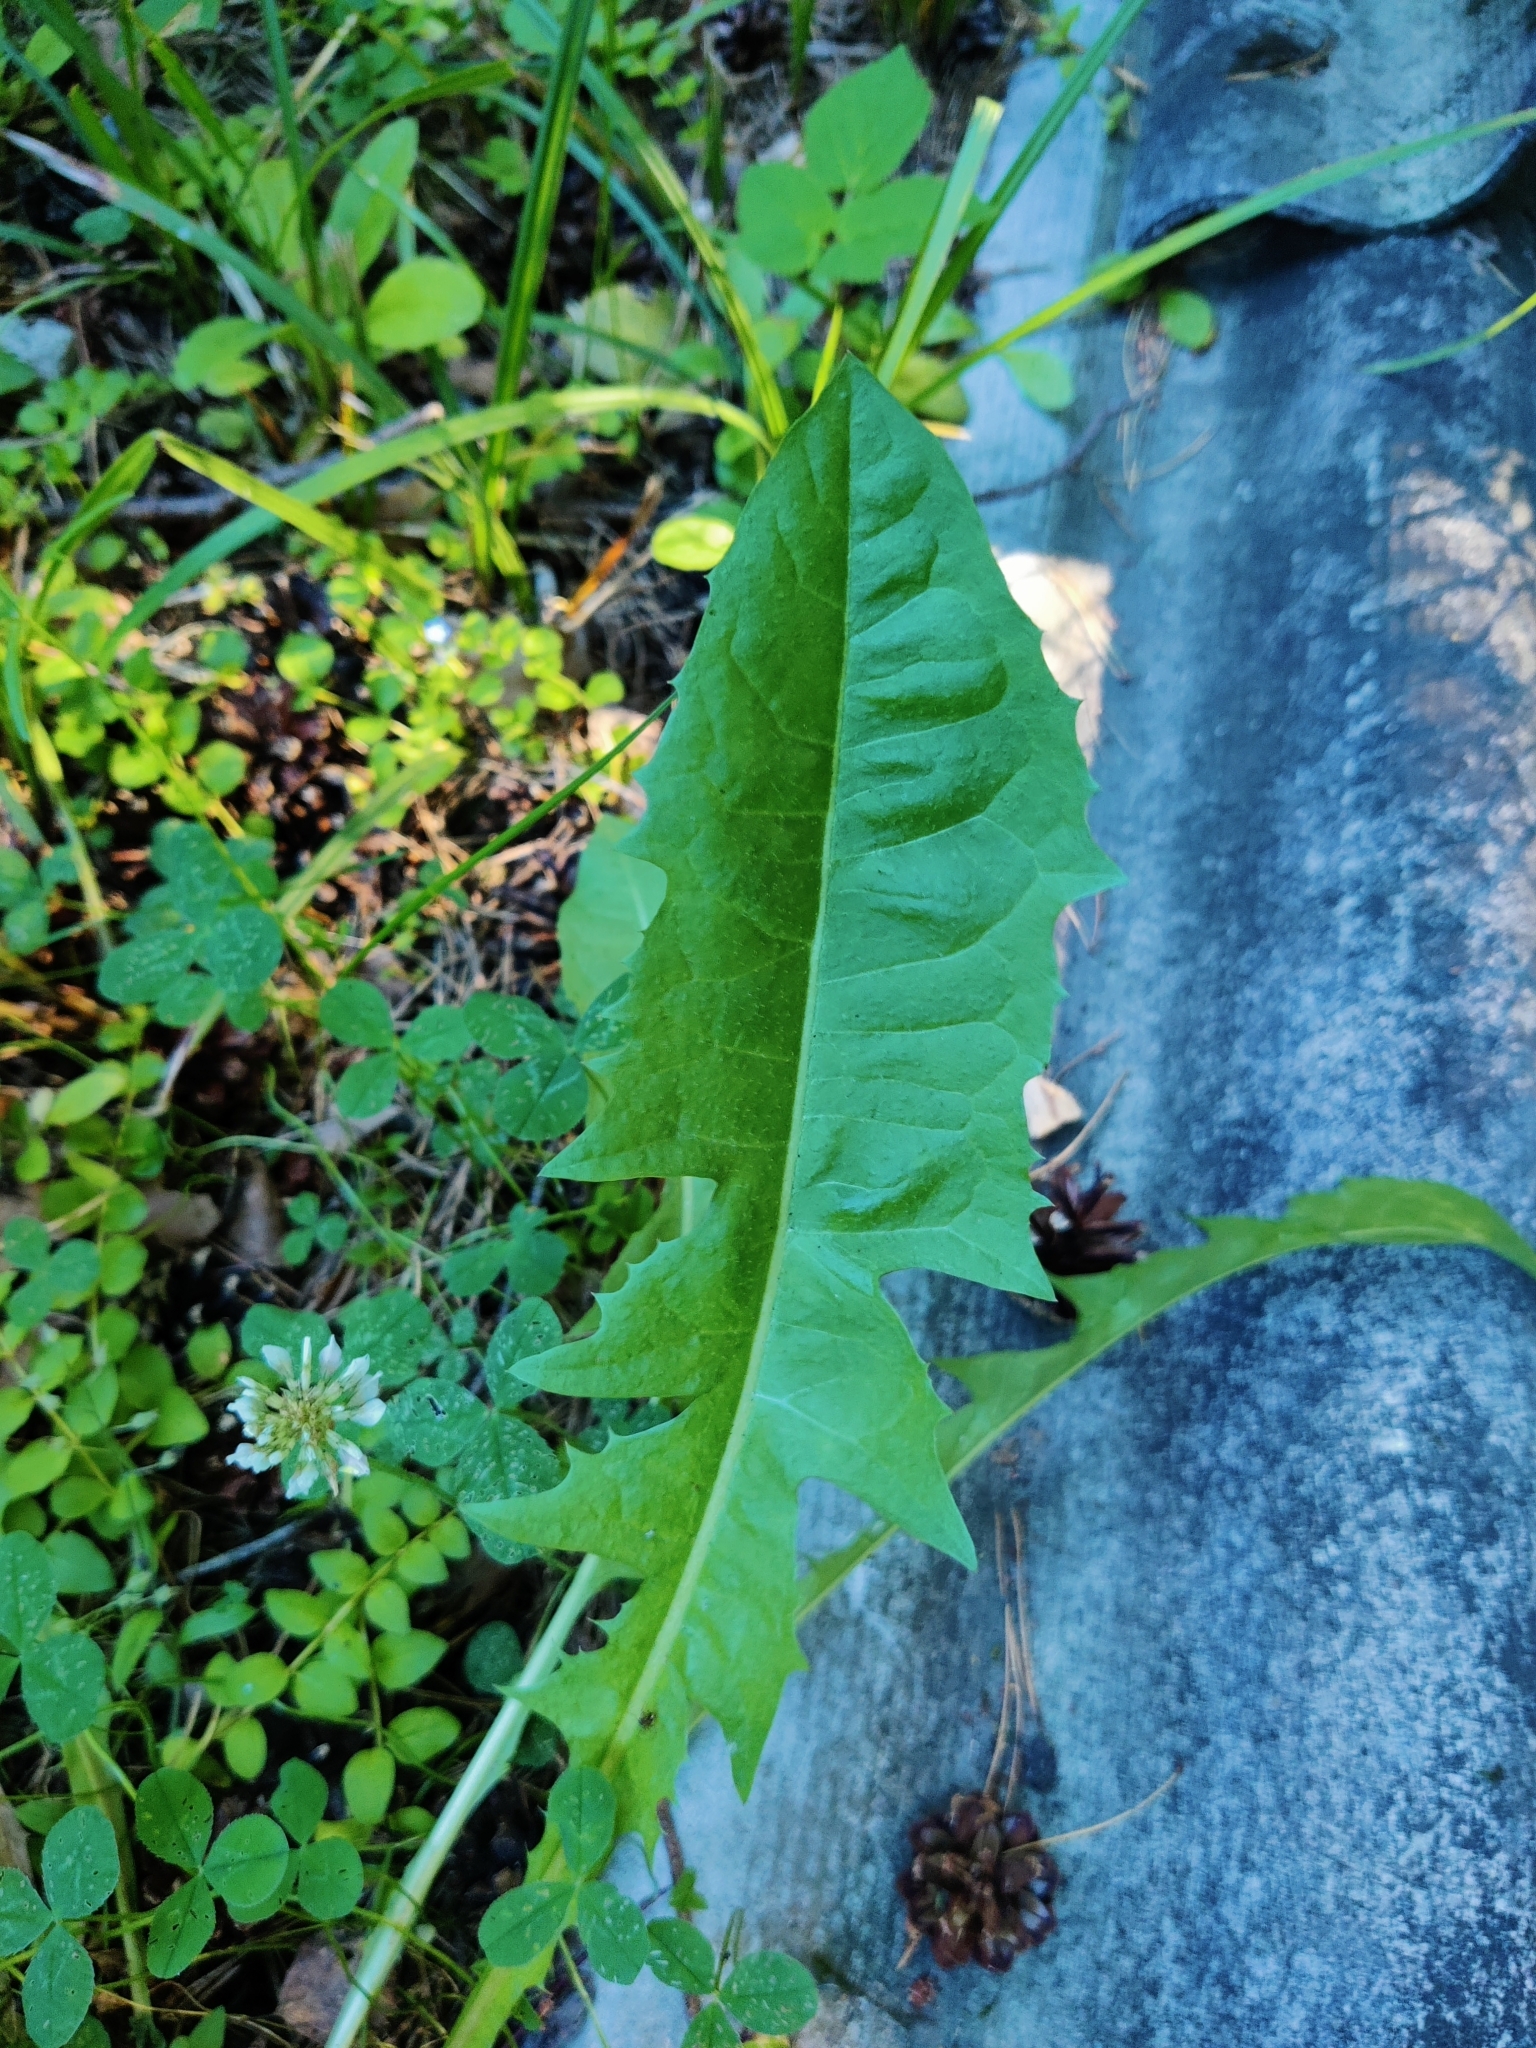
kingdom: Plantae
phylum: Tracheophyta
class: Magnoliopsida
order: Asterales
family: Asteraceae
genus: Taraxacum
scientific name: Taraxacum officinale
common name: Common dandelion
